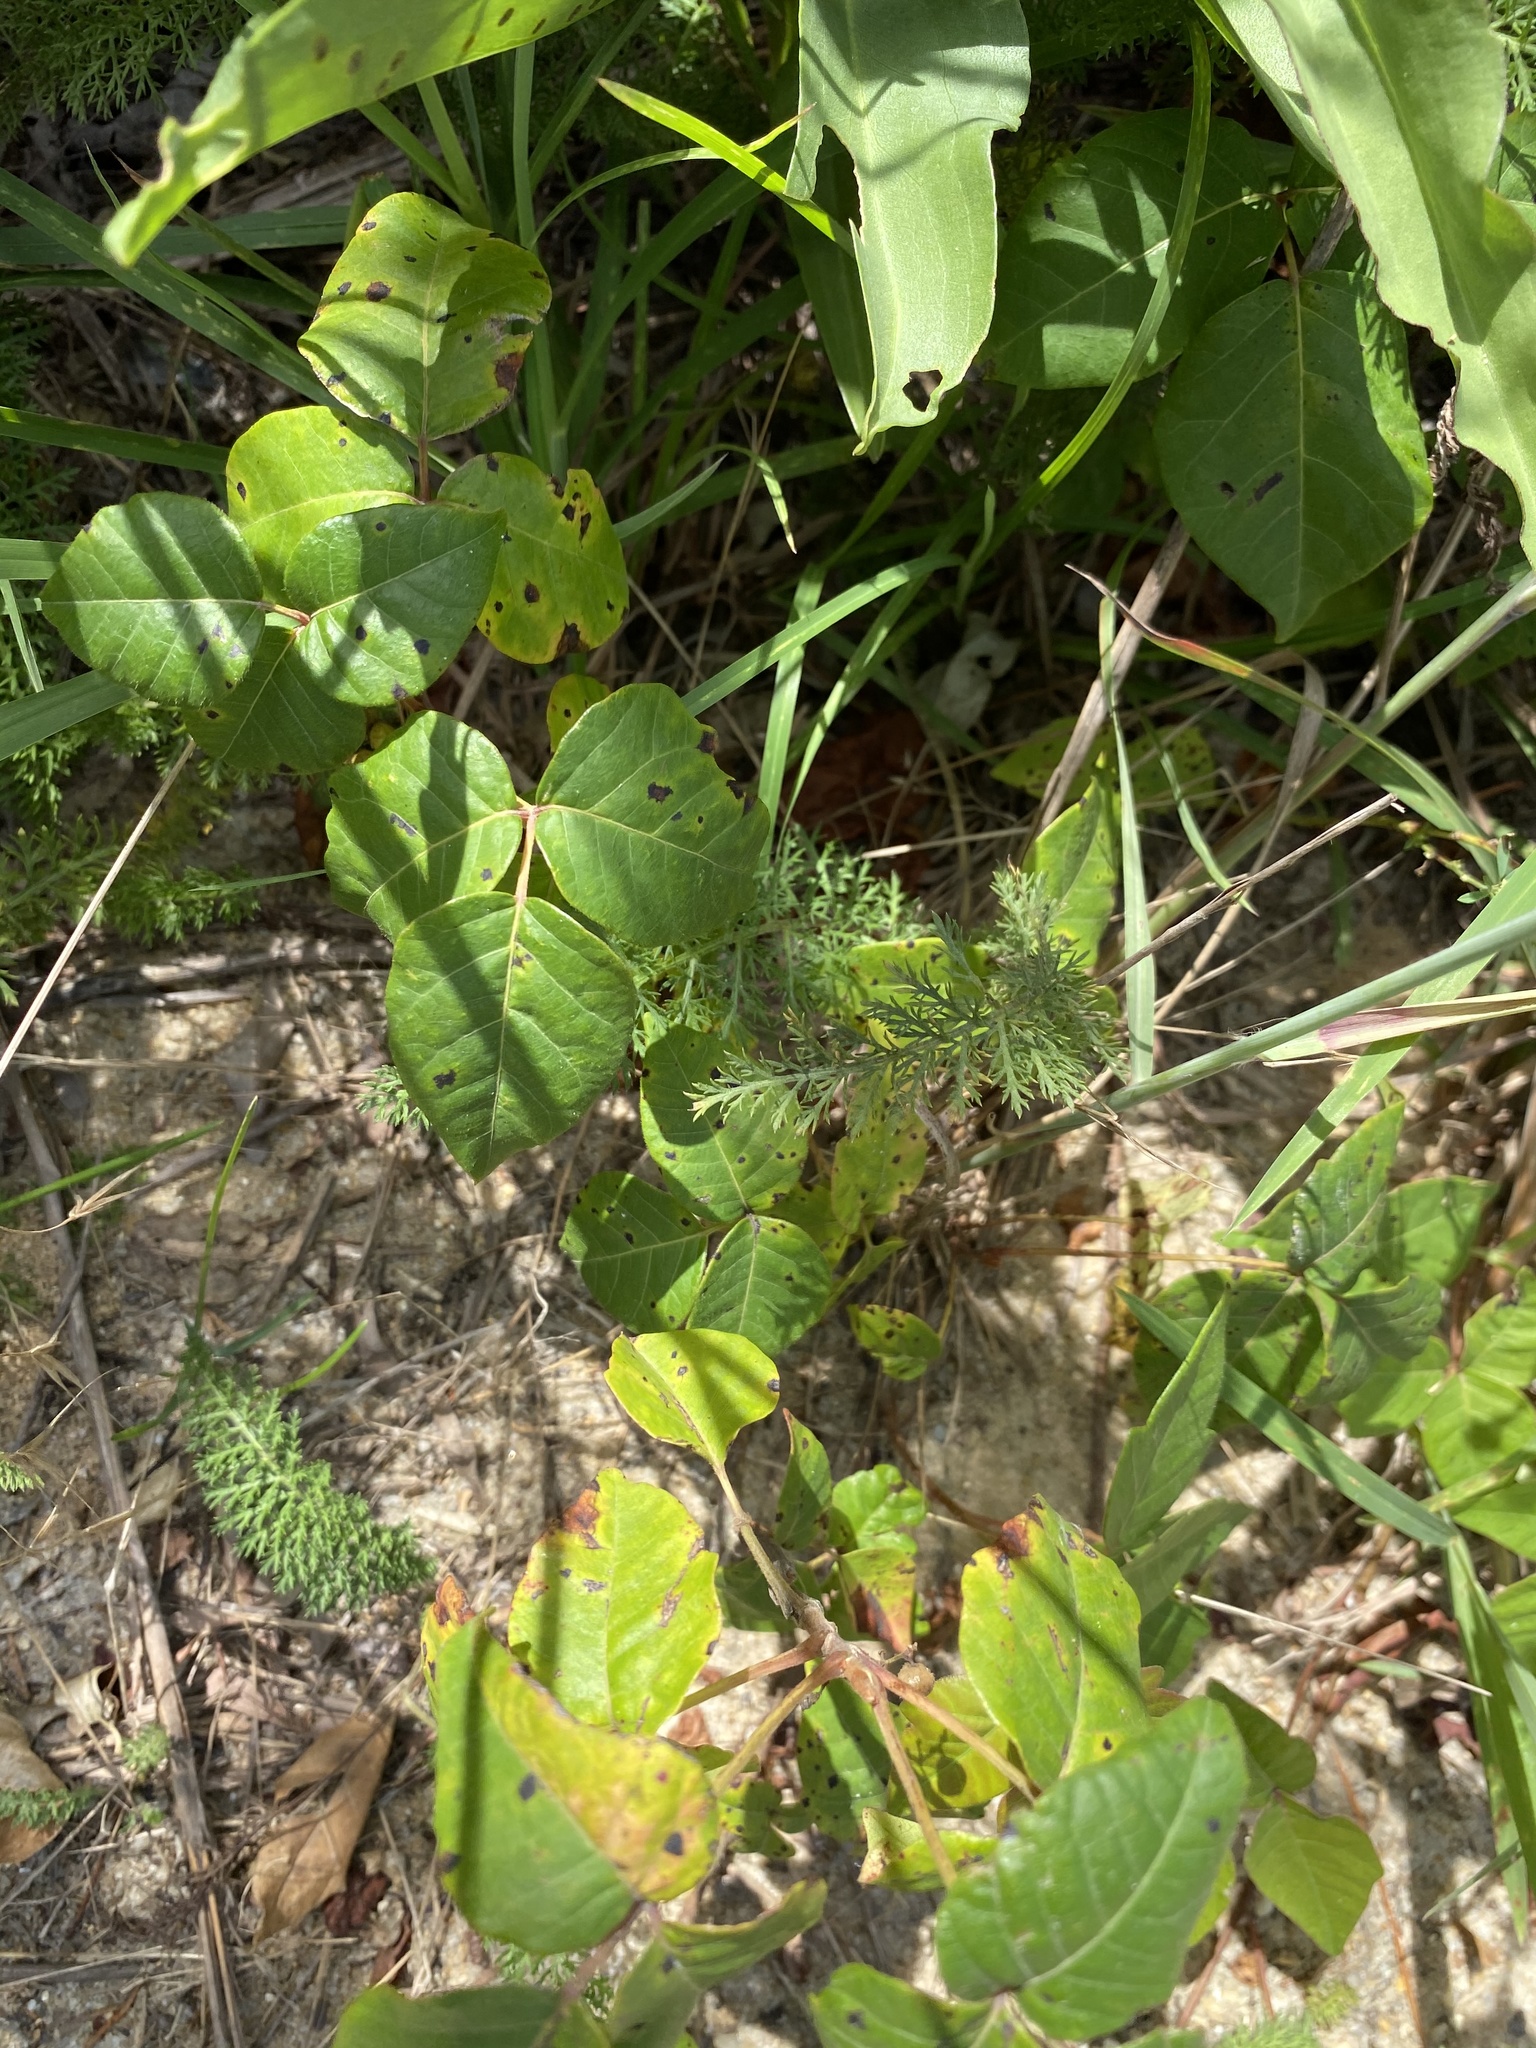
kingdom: Plantae
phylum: Tracheophyta
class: Magnoliopsida
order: Asterales
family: Asteraceae
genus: Achillea
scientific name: Achillea millefolium
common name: Yarrow
